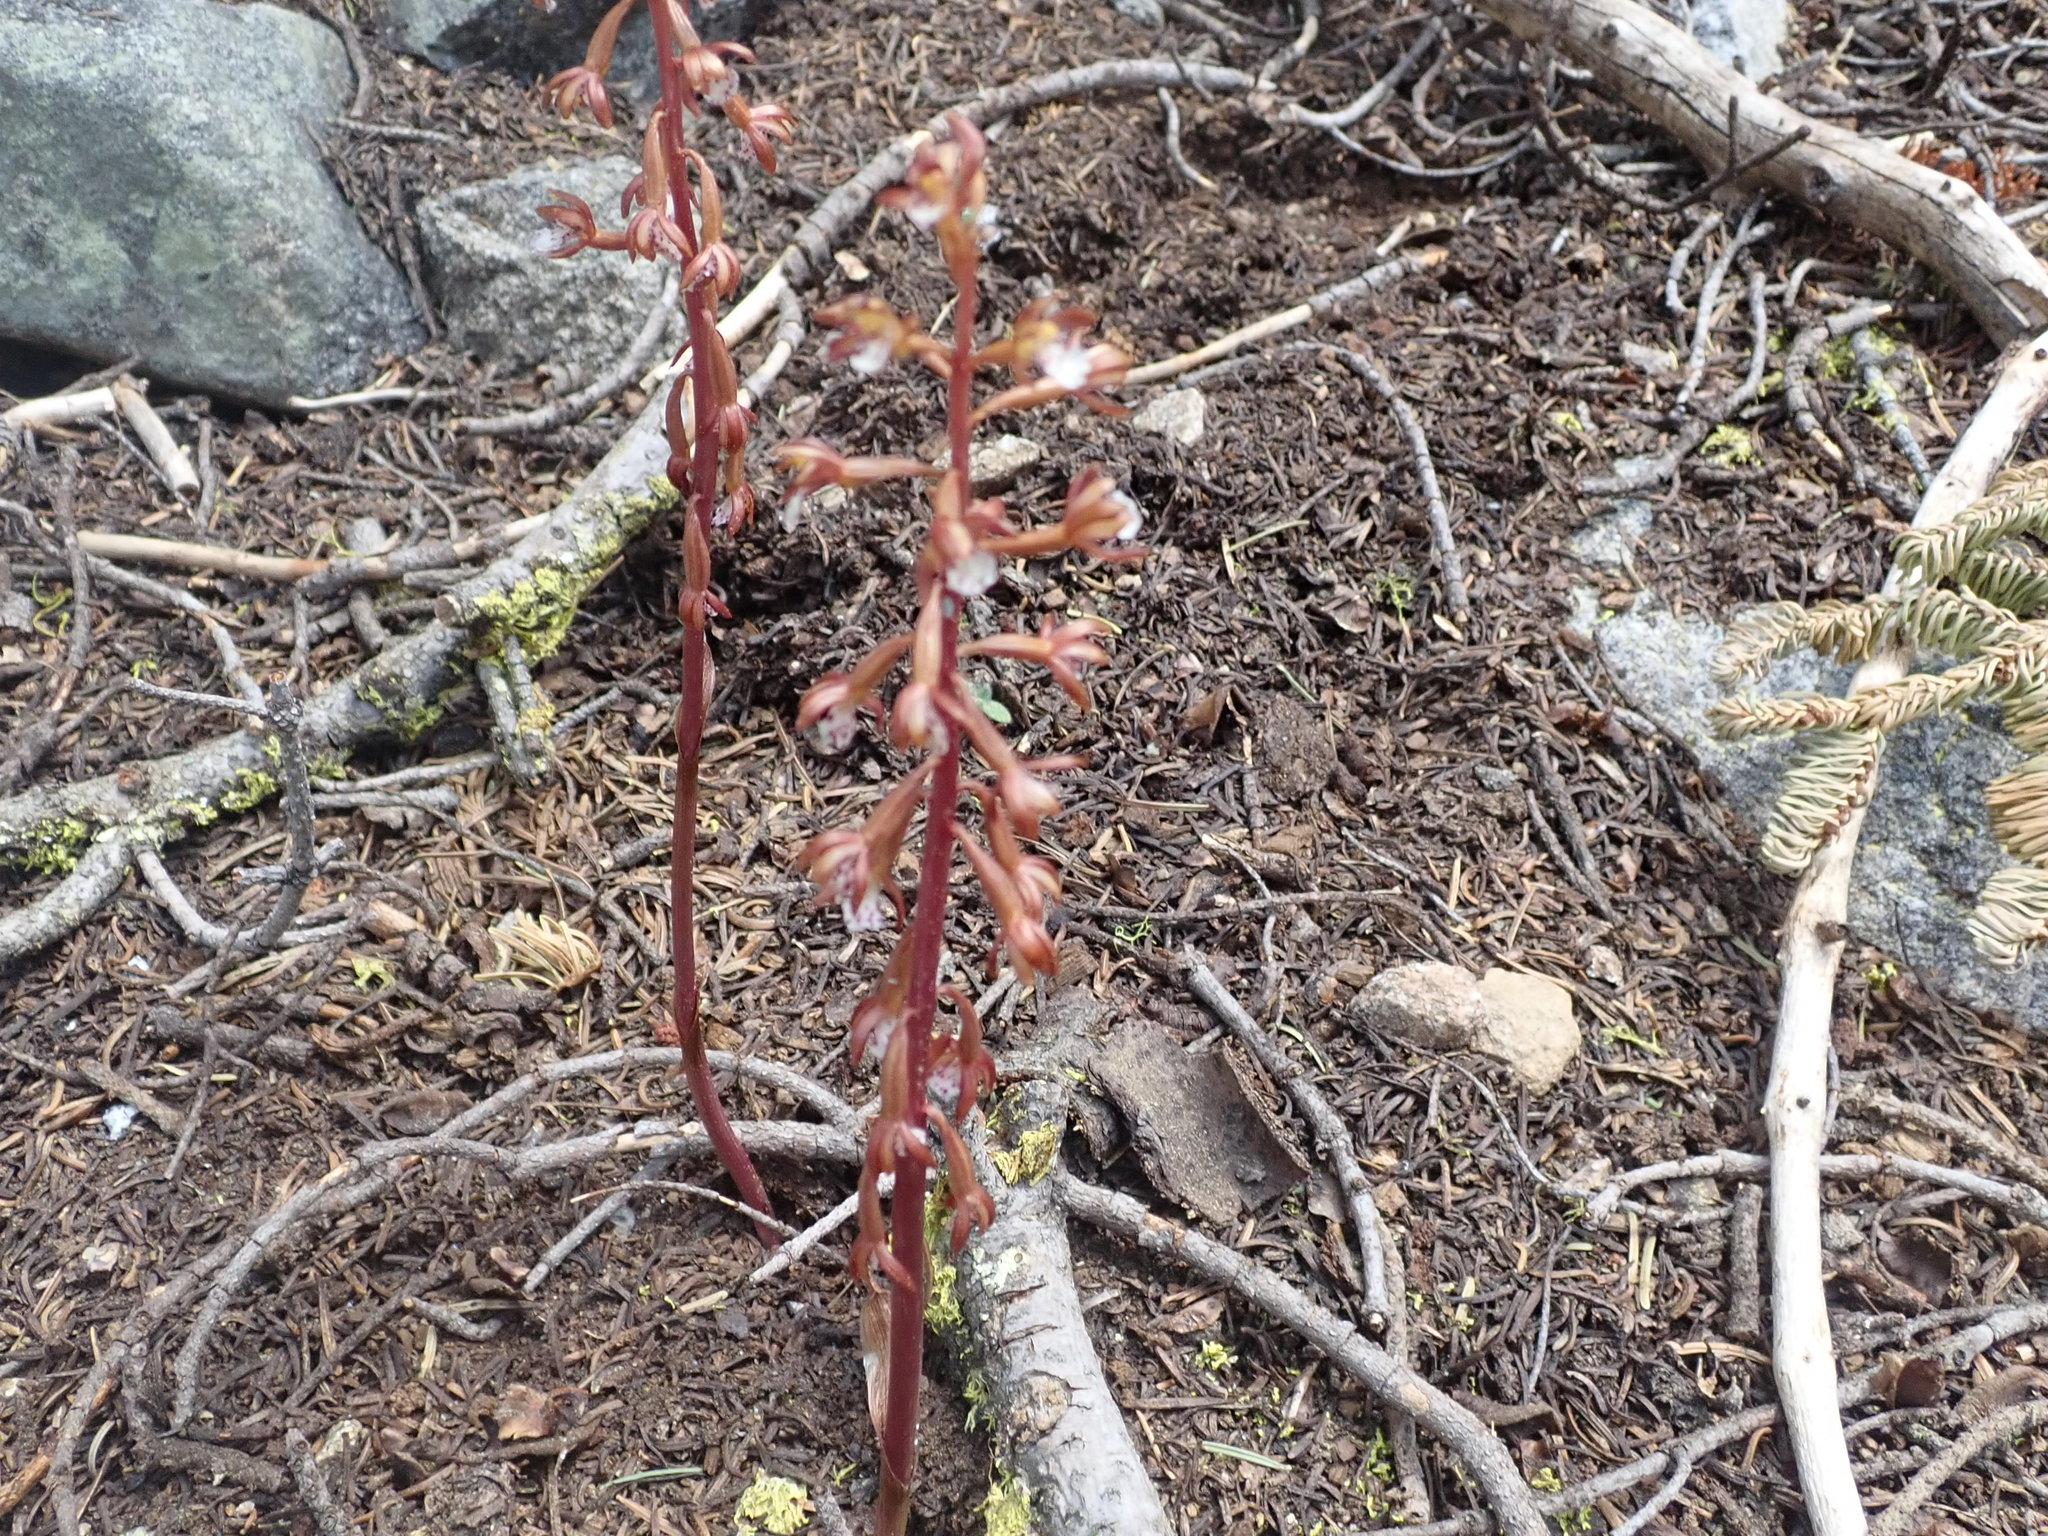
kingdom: Plantae
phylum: Tracheophyta
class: Liliopsida
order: Asparagales
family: Orchidaceae
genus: Corallorhiza
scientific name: Corallorhiza maculata
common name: Spotted coralroot
